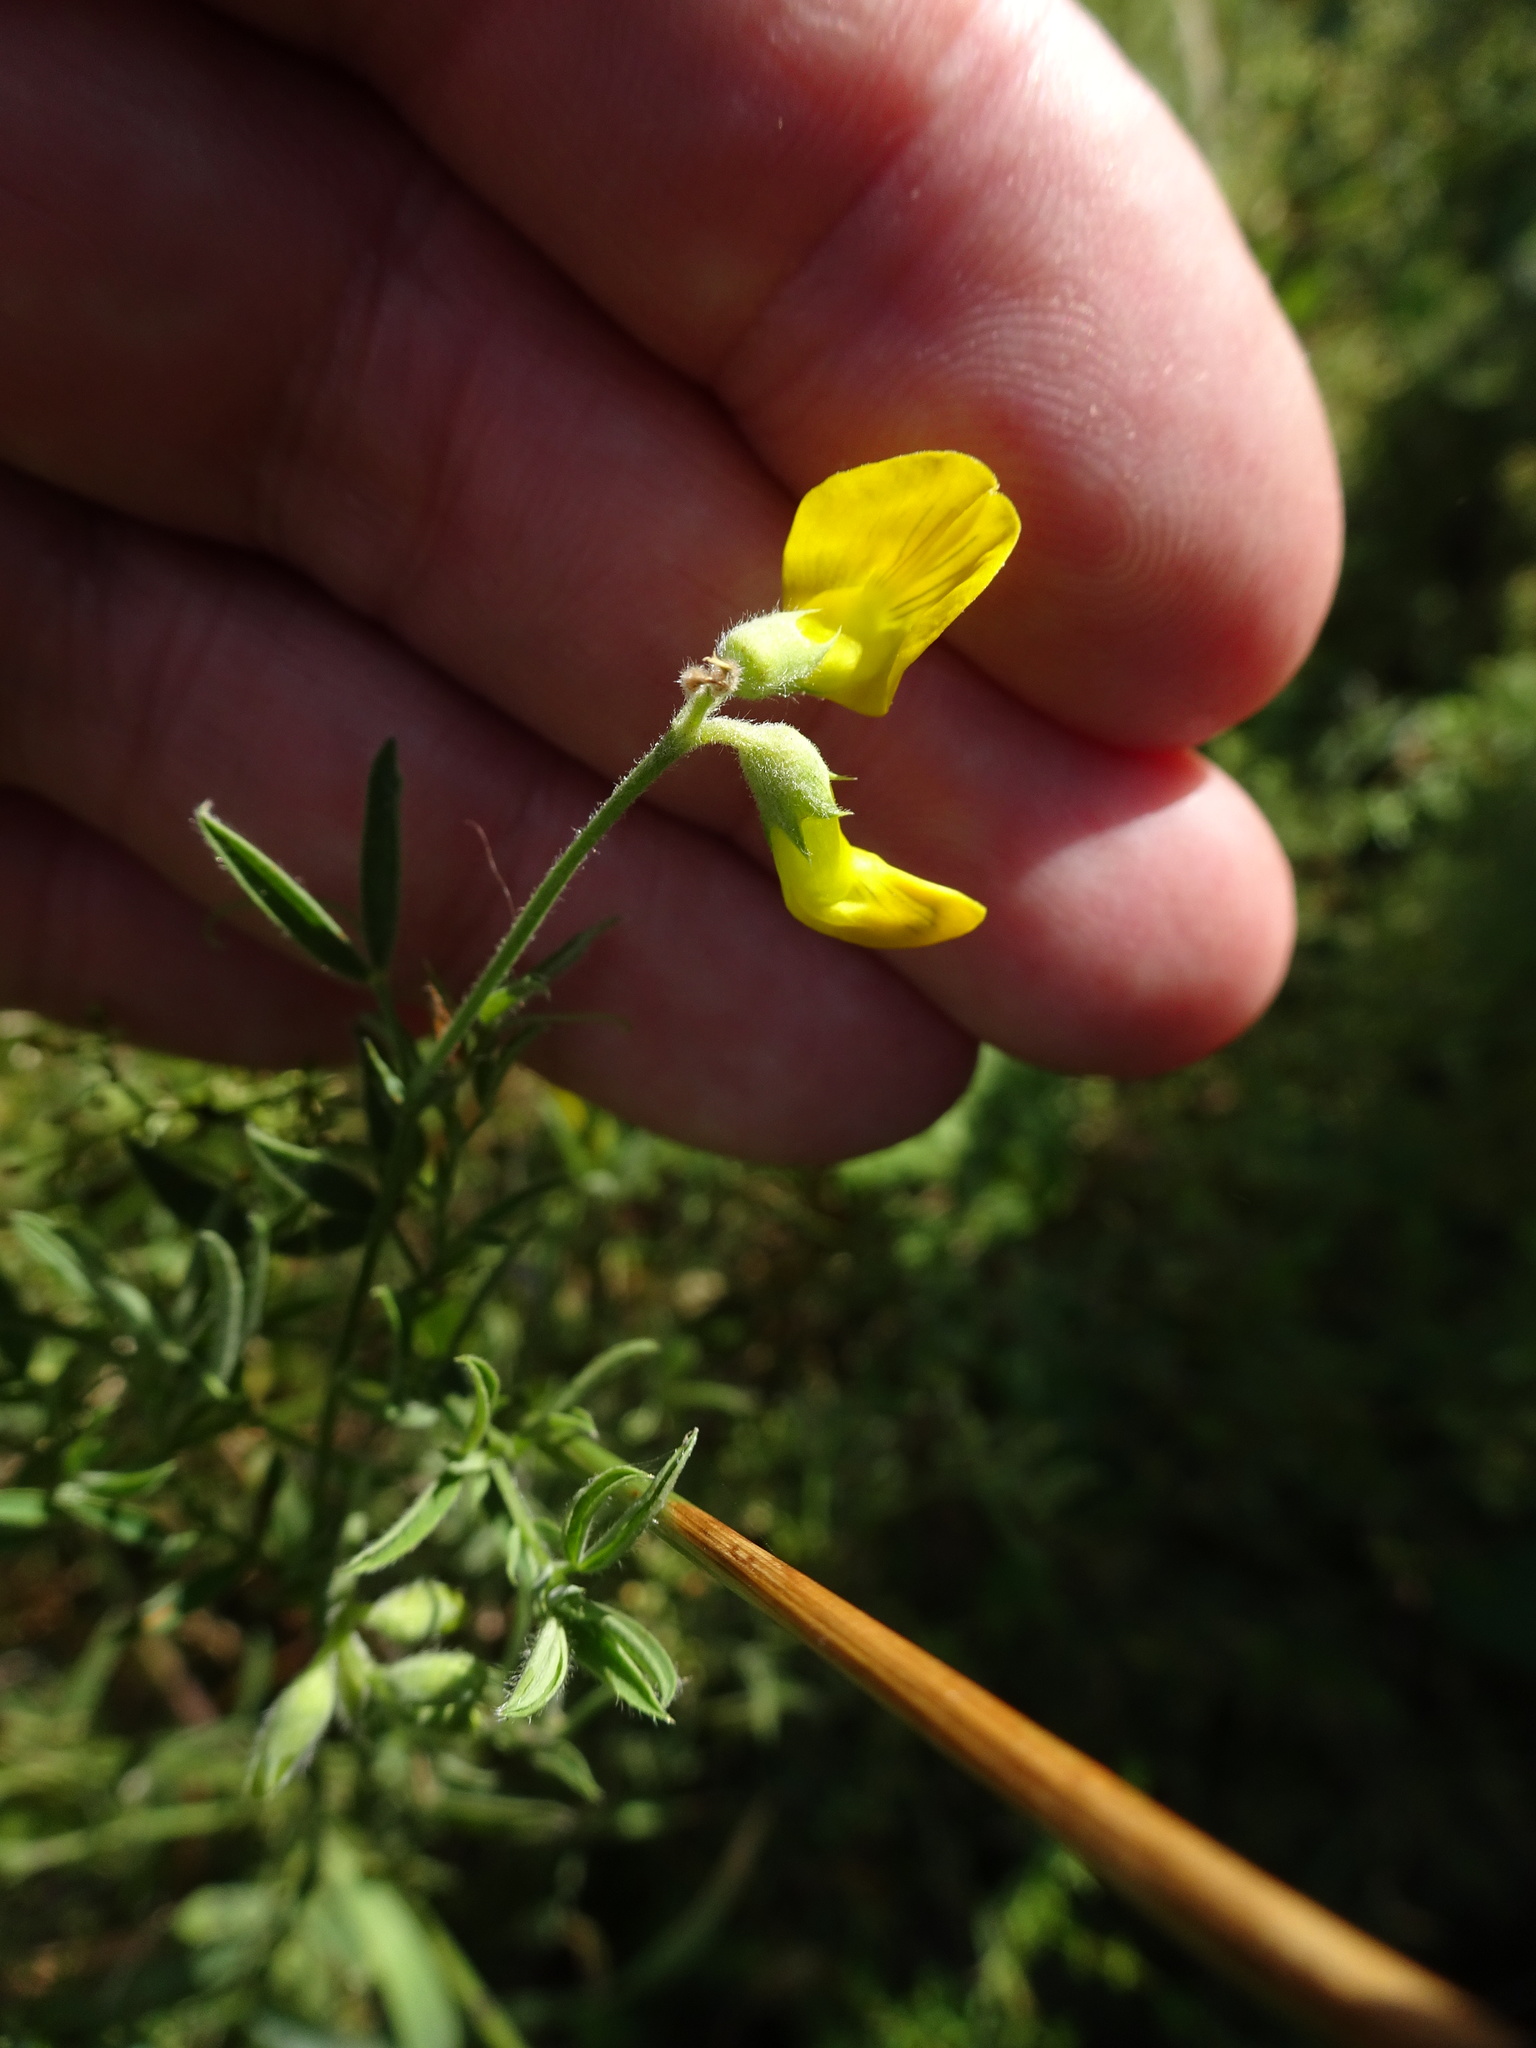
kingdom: Plantae
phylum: Tracheophyta
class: Magnoliopsida
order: Fabales
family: Fabaceae
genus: Lathyrus
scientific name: Lathyrus pratensis
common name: Meadow vetchling
